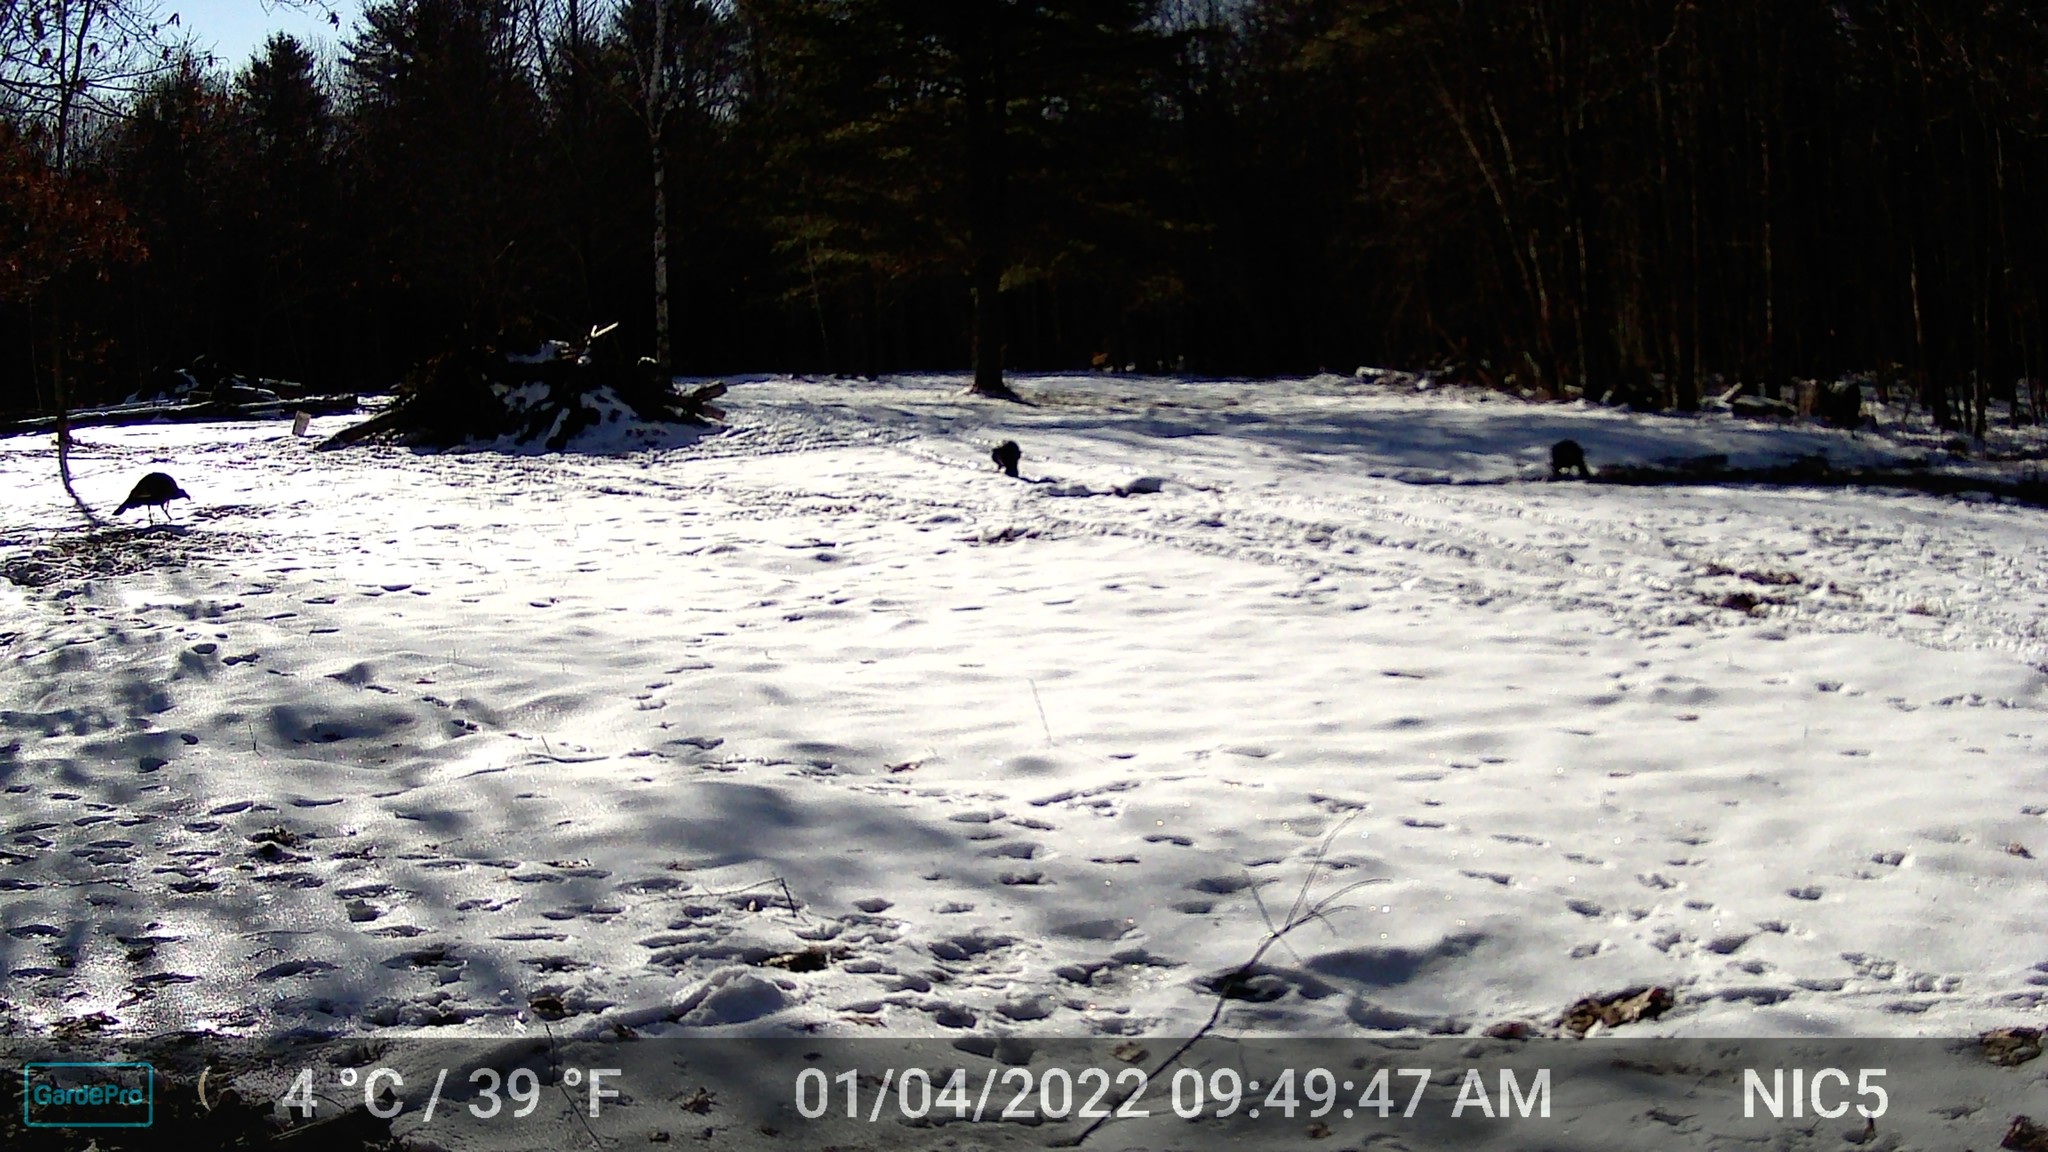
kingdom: Animalia
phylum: Chordata
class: Aves
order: Galliformes
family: Phasianidae
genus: Meleagris
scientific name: Meleagris gallopavo
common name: Wild turkey
